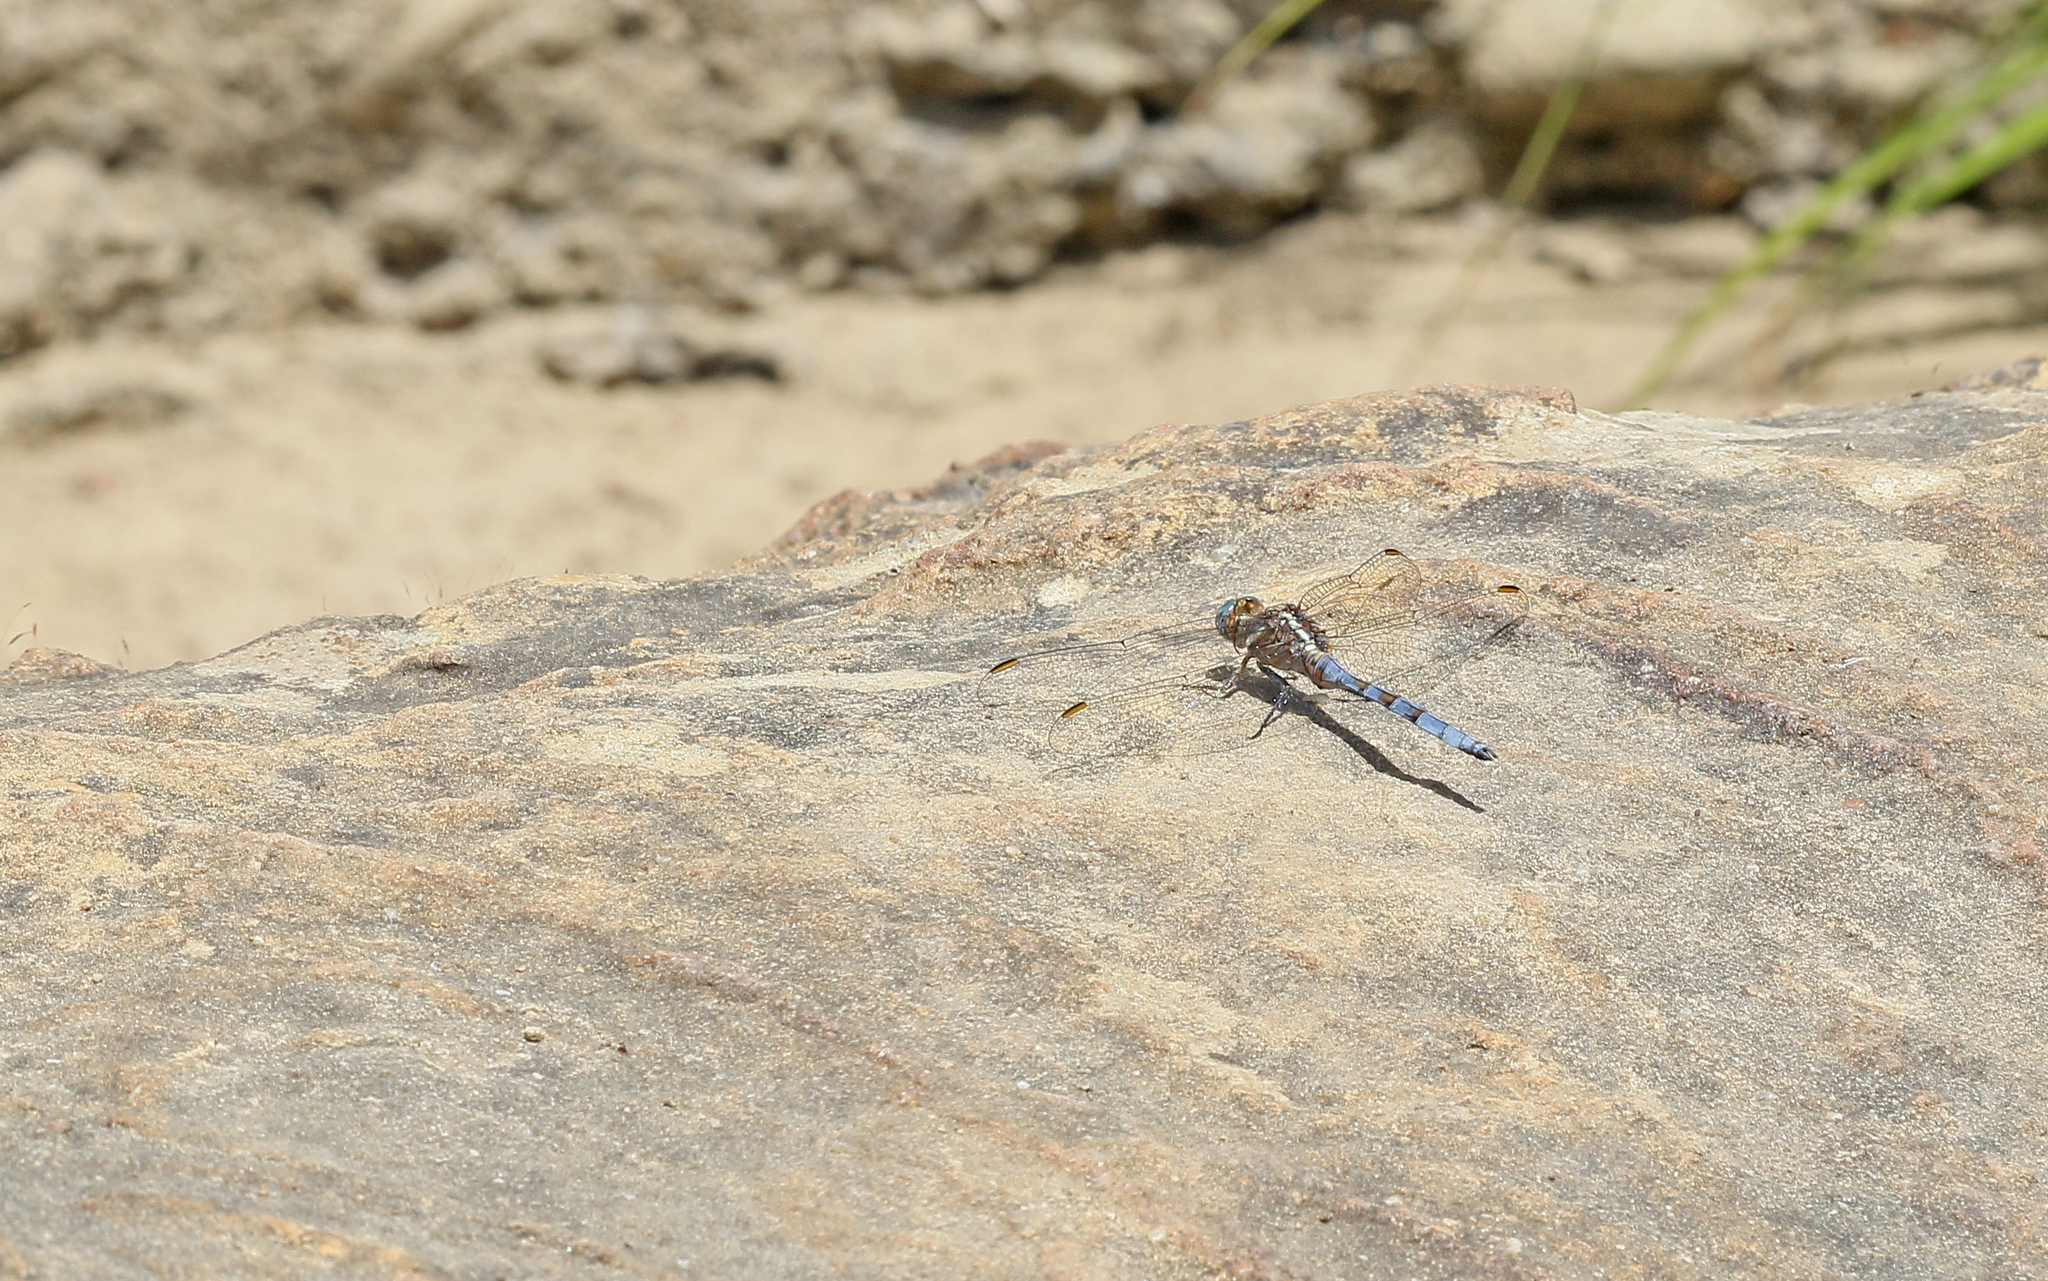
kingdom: Animalia
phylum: Arthropoda
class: Insecta
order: Odonata
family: Libellulidae
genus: Orthetrum
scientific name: Orthetrum chrysostigma
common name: Epaulet skimmer
